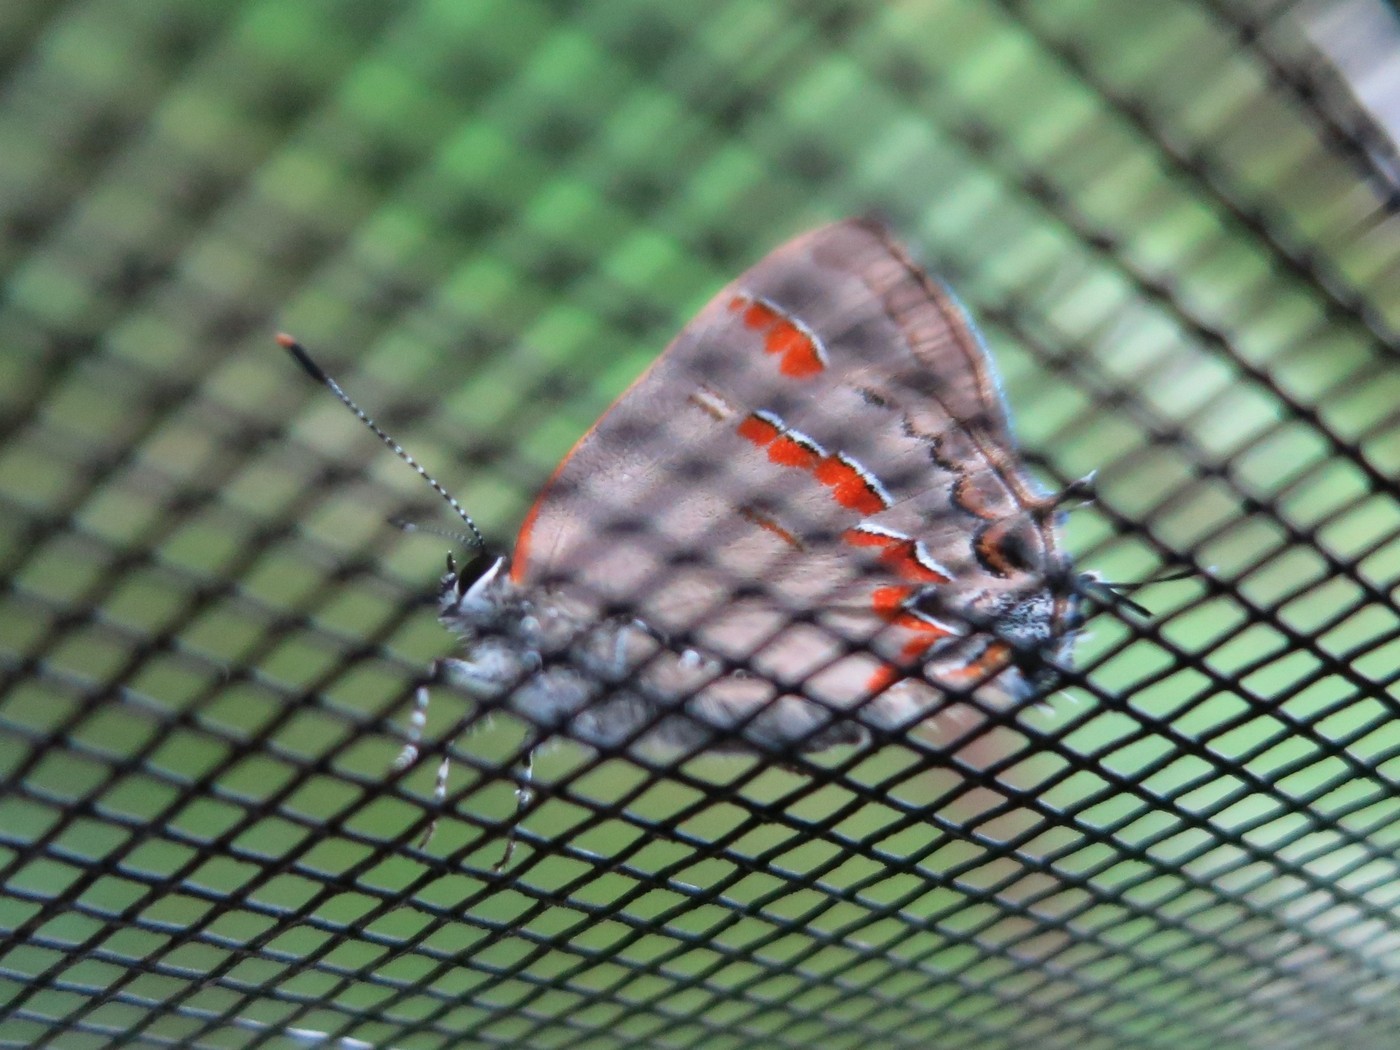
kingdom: Animalia
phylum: Arthropoda
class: Insecta
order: Lepidoptera
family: Lycaenidae
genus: Calycopis
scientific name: Calycopis cecrops
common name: Red-banded hairstreak
